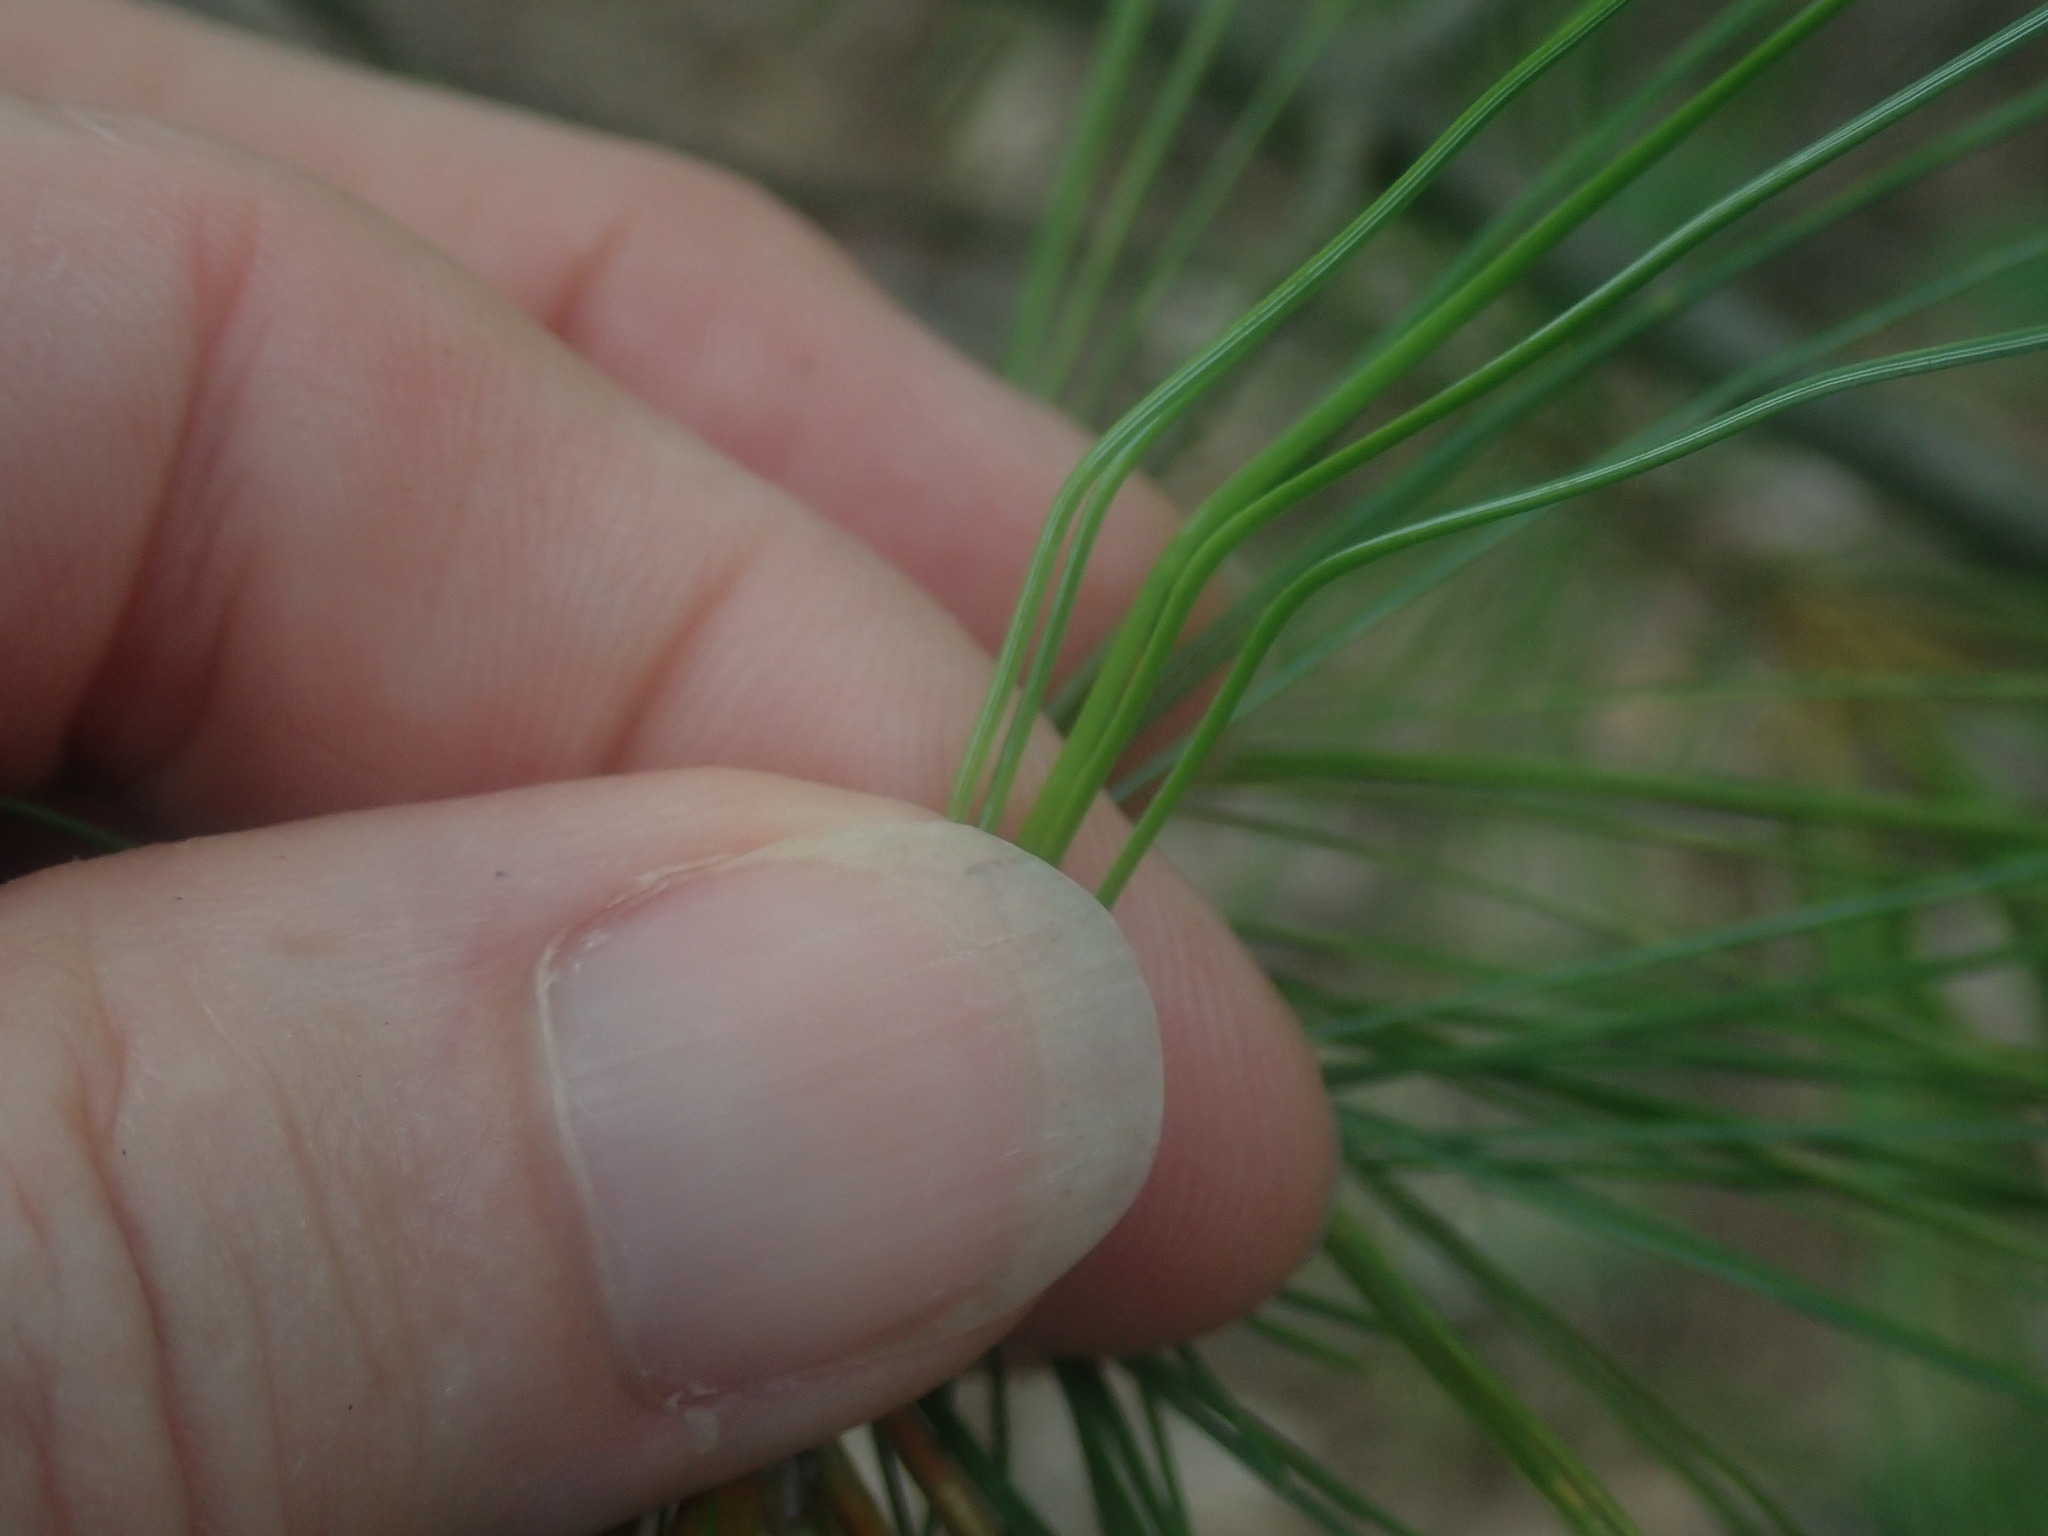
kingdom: Plantae
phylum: Tracheophyta
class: Pinopsida
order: Pinales
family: Pinaceae
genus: Pinus
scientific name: Pinus strobus
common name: Weymouth pine
